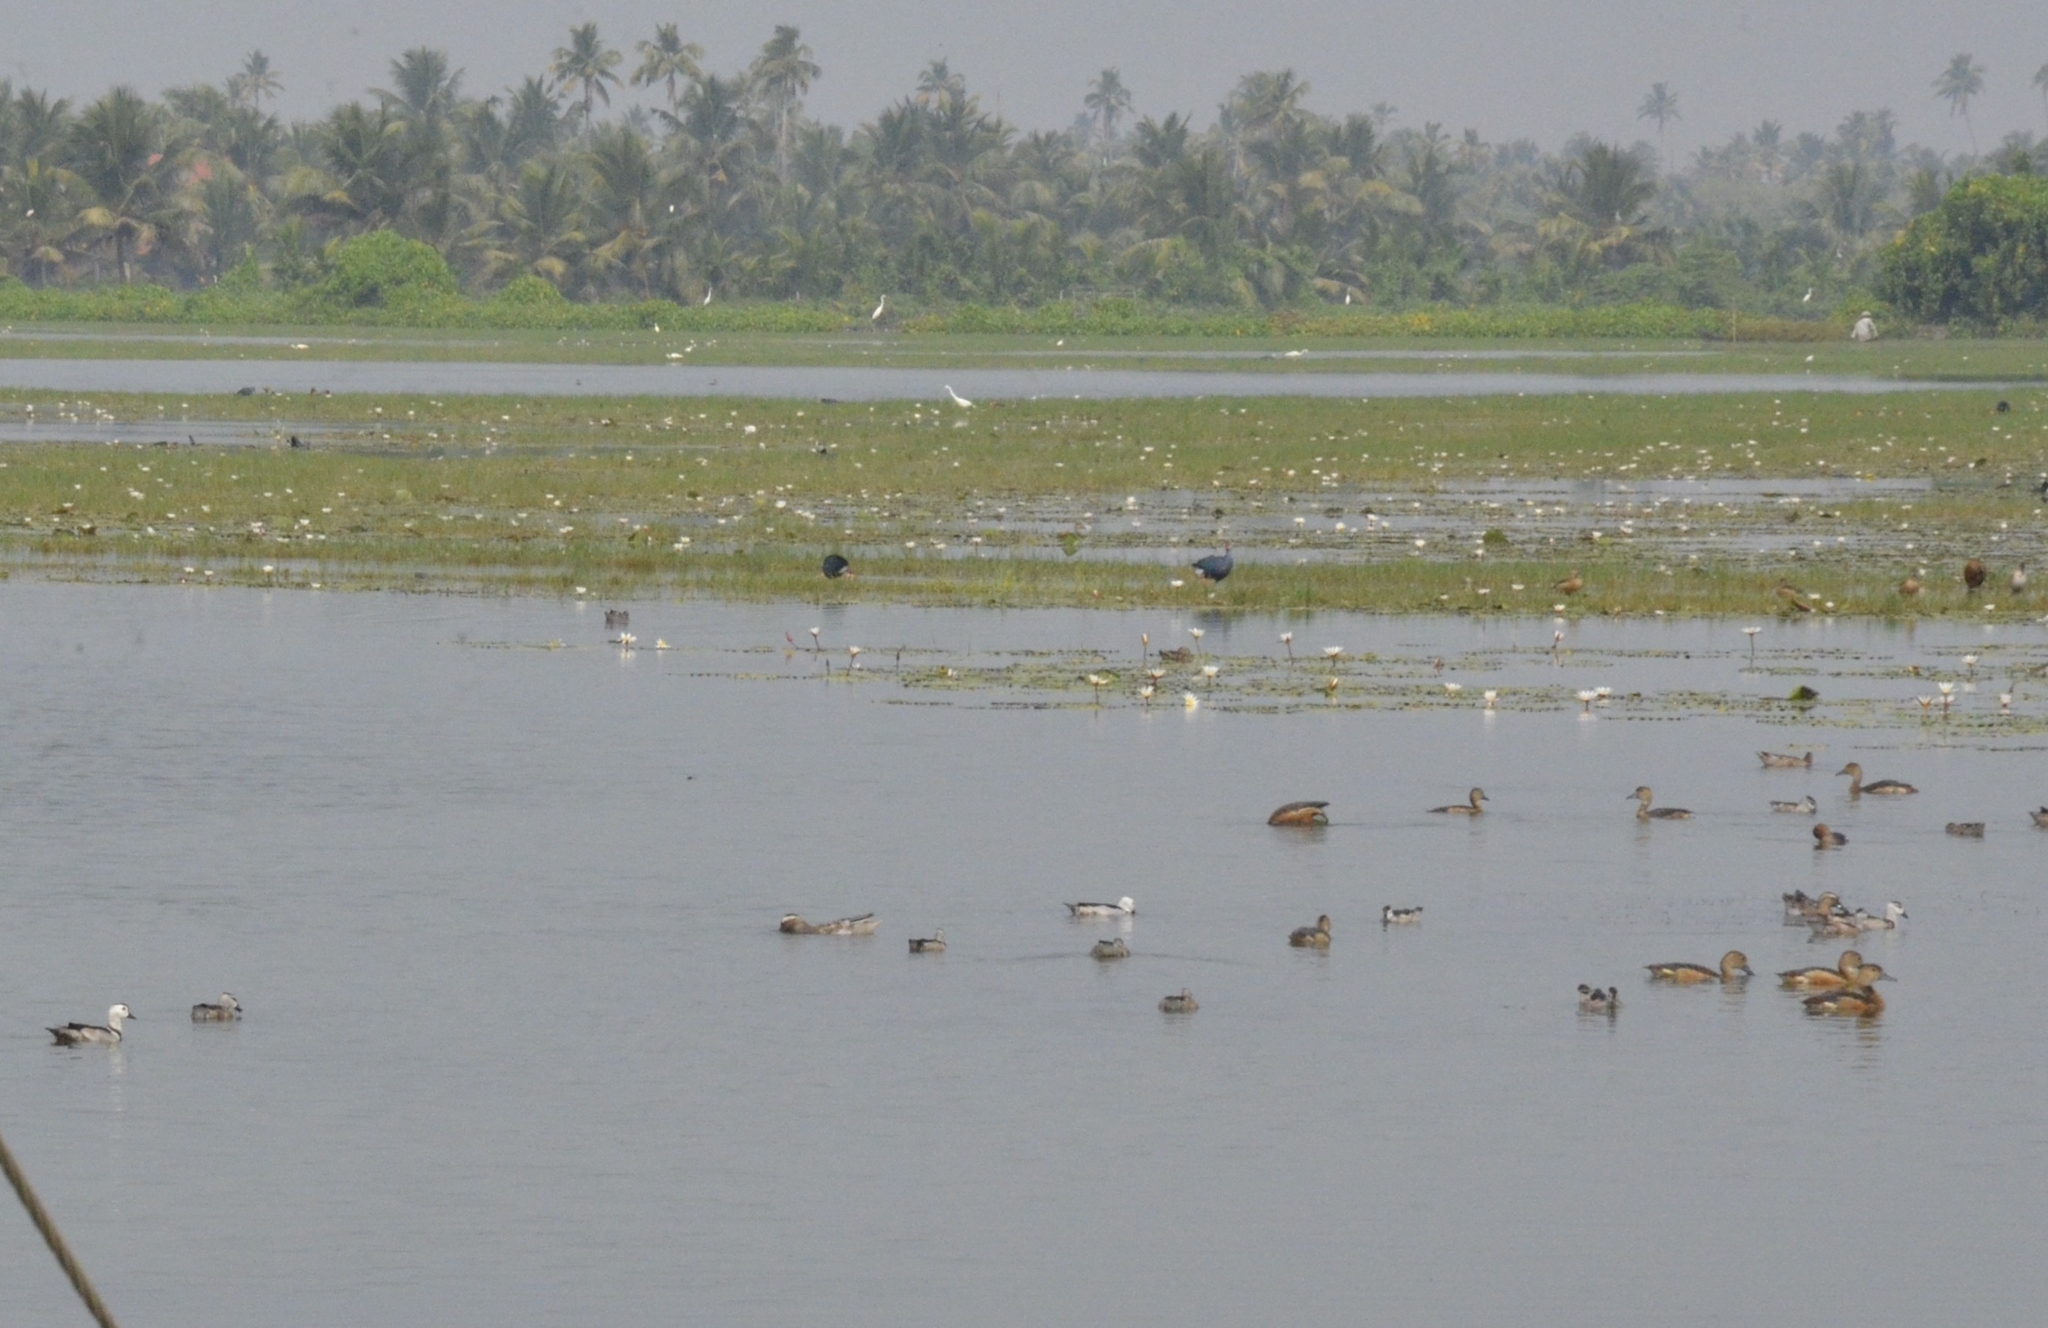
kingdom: Animalia
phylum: Chordata
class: Aves
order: Anseriformes
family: Anatidae
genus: Nettapus
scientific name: Nettapus coromandelianus
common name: Cotton pygmy-goose
